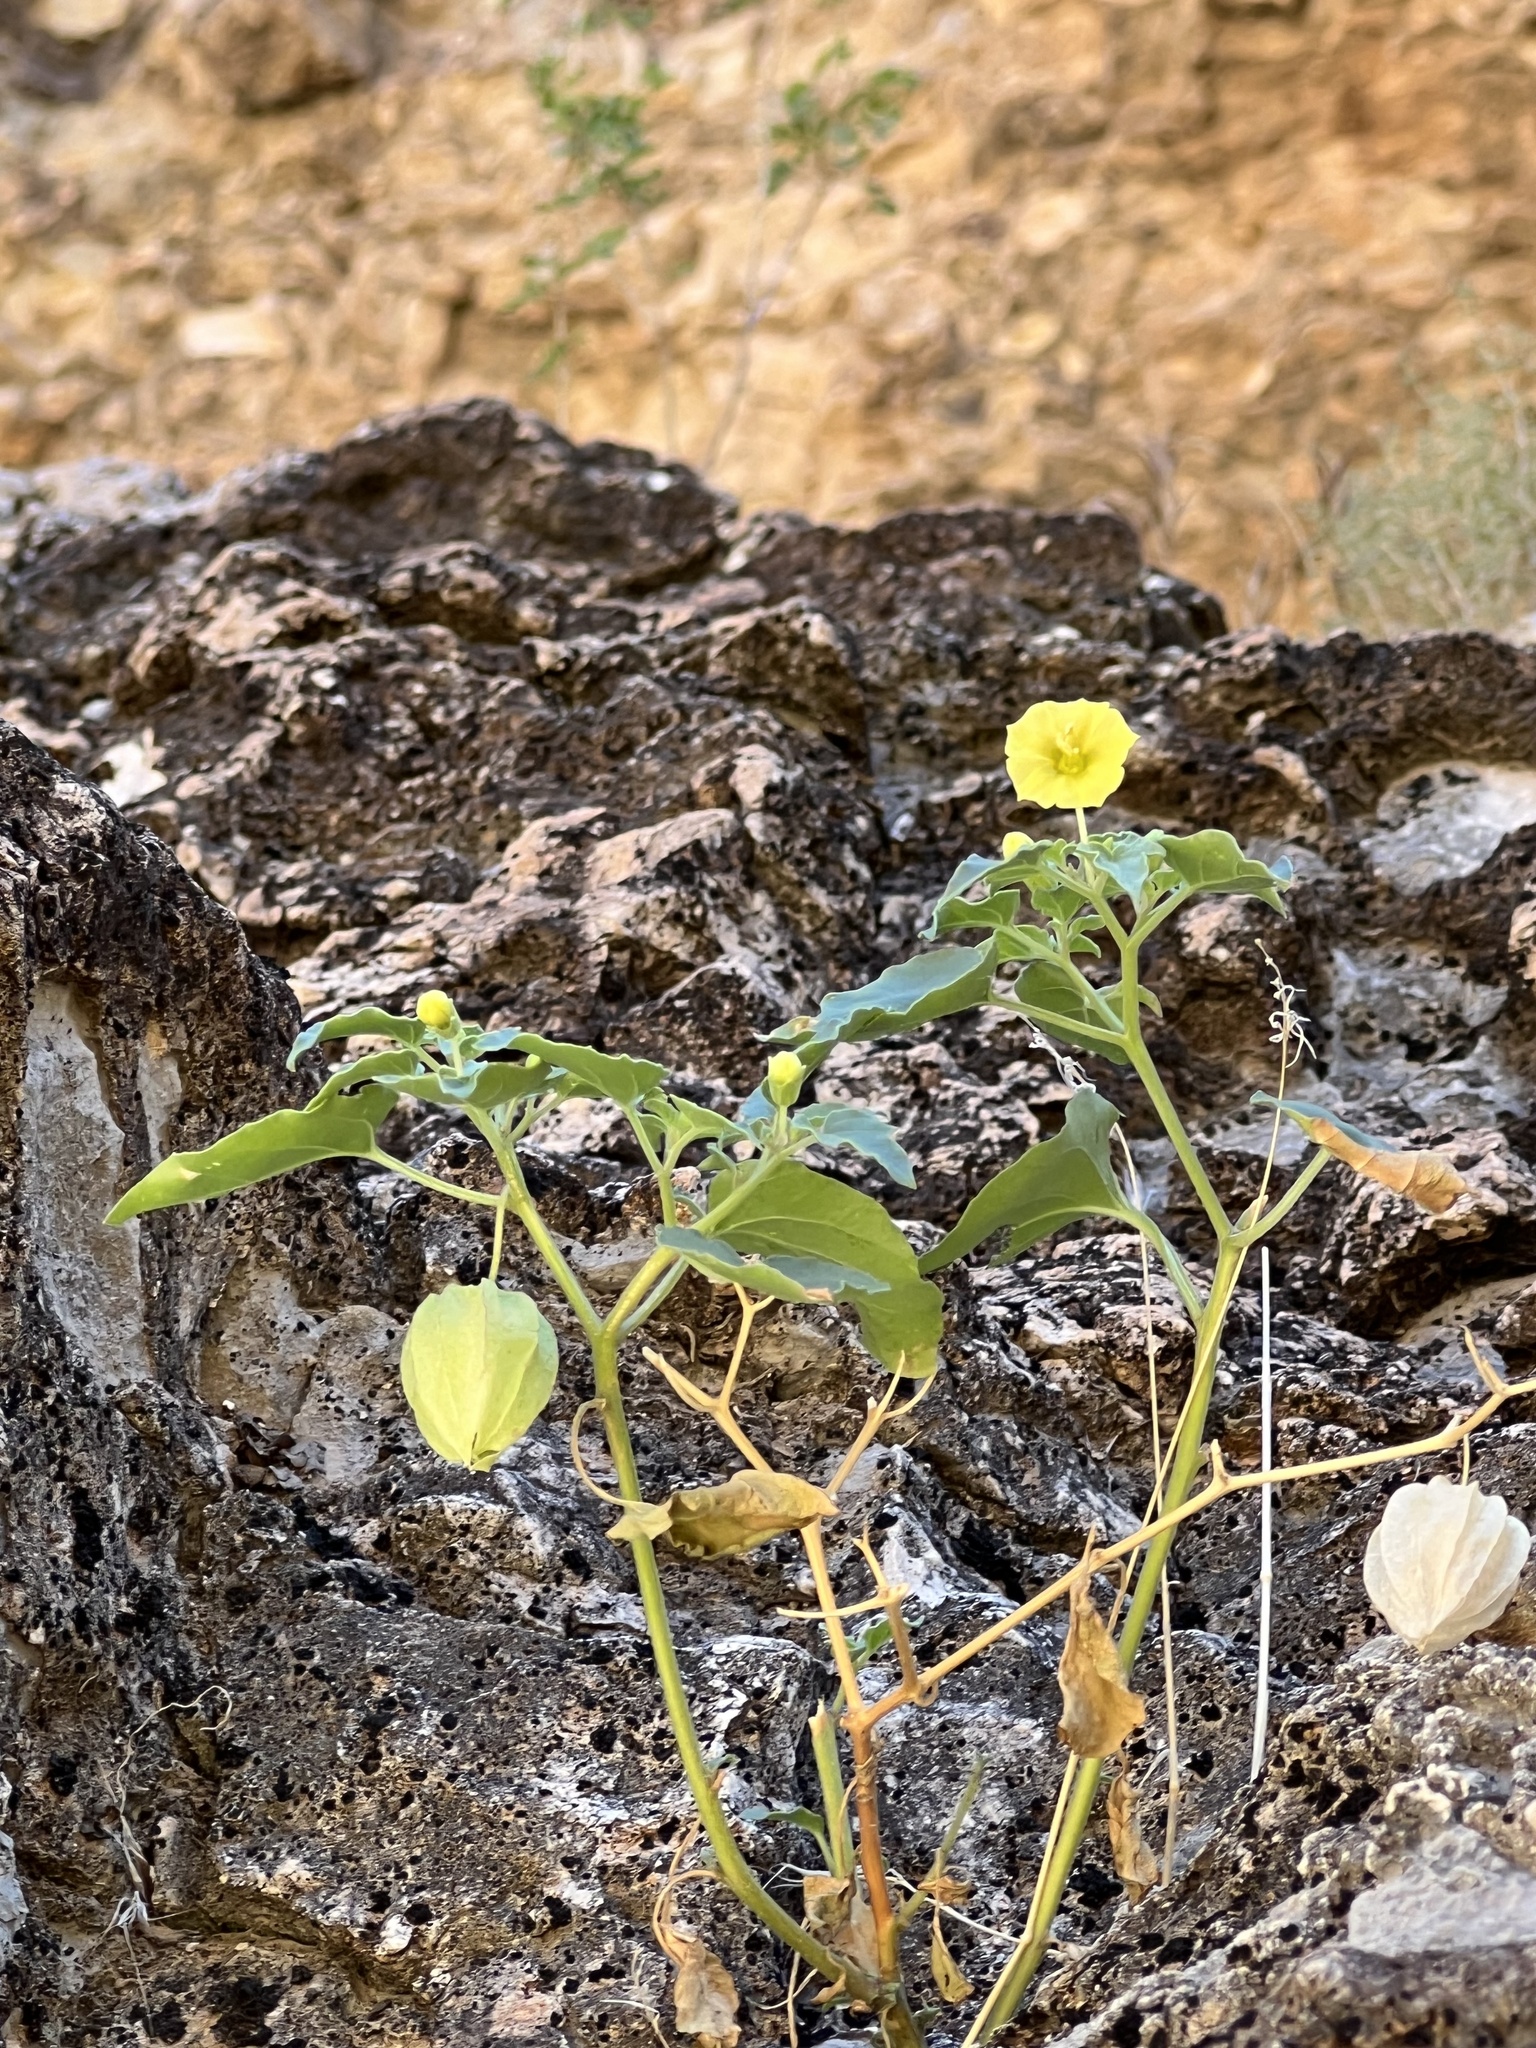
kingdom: Plantae
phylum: Tracheophyta
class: Magnoliopsida
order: Solanales
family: Solanaceae
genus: Physalis
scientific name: Physalis crassifolia
